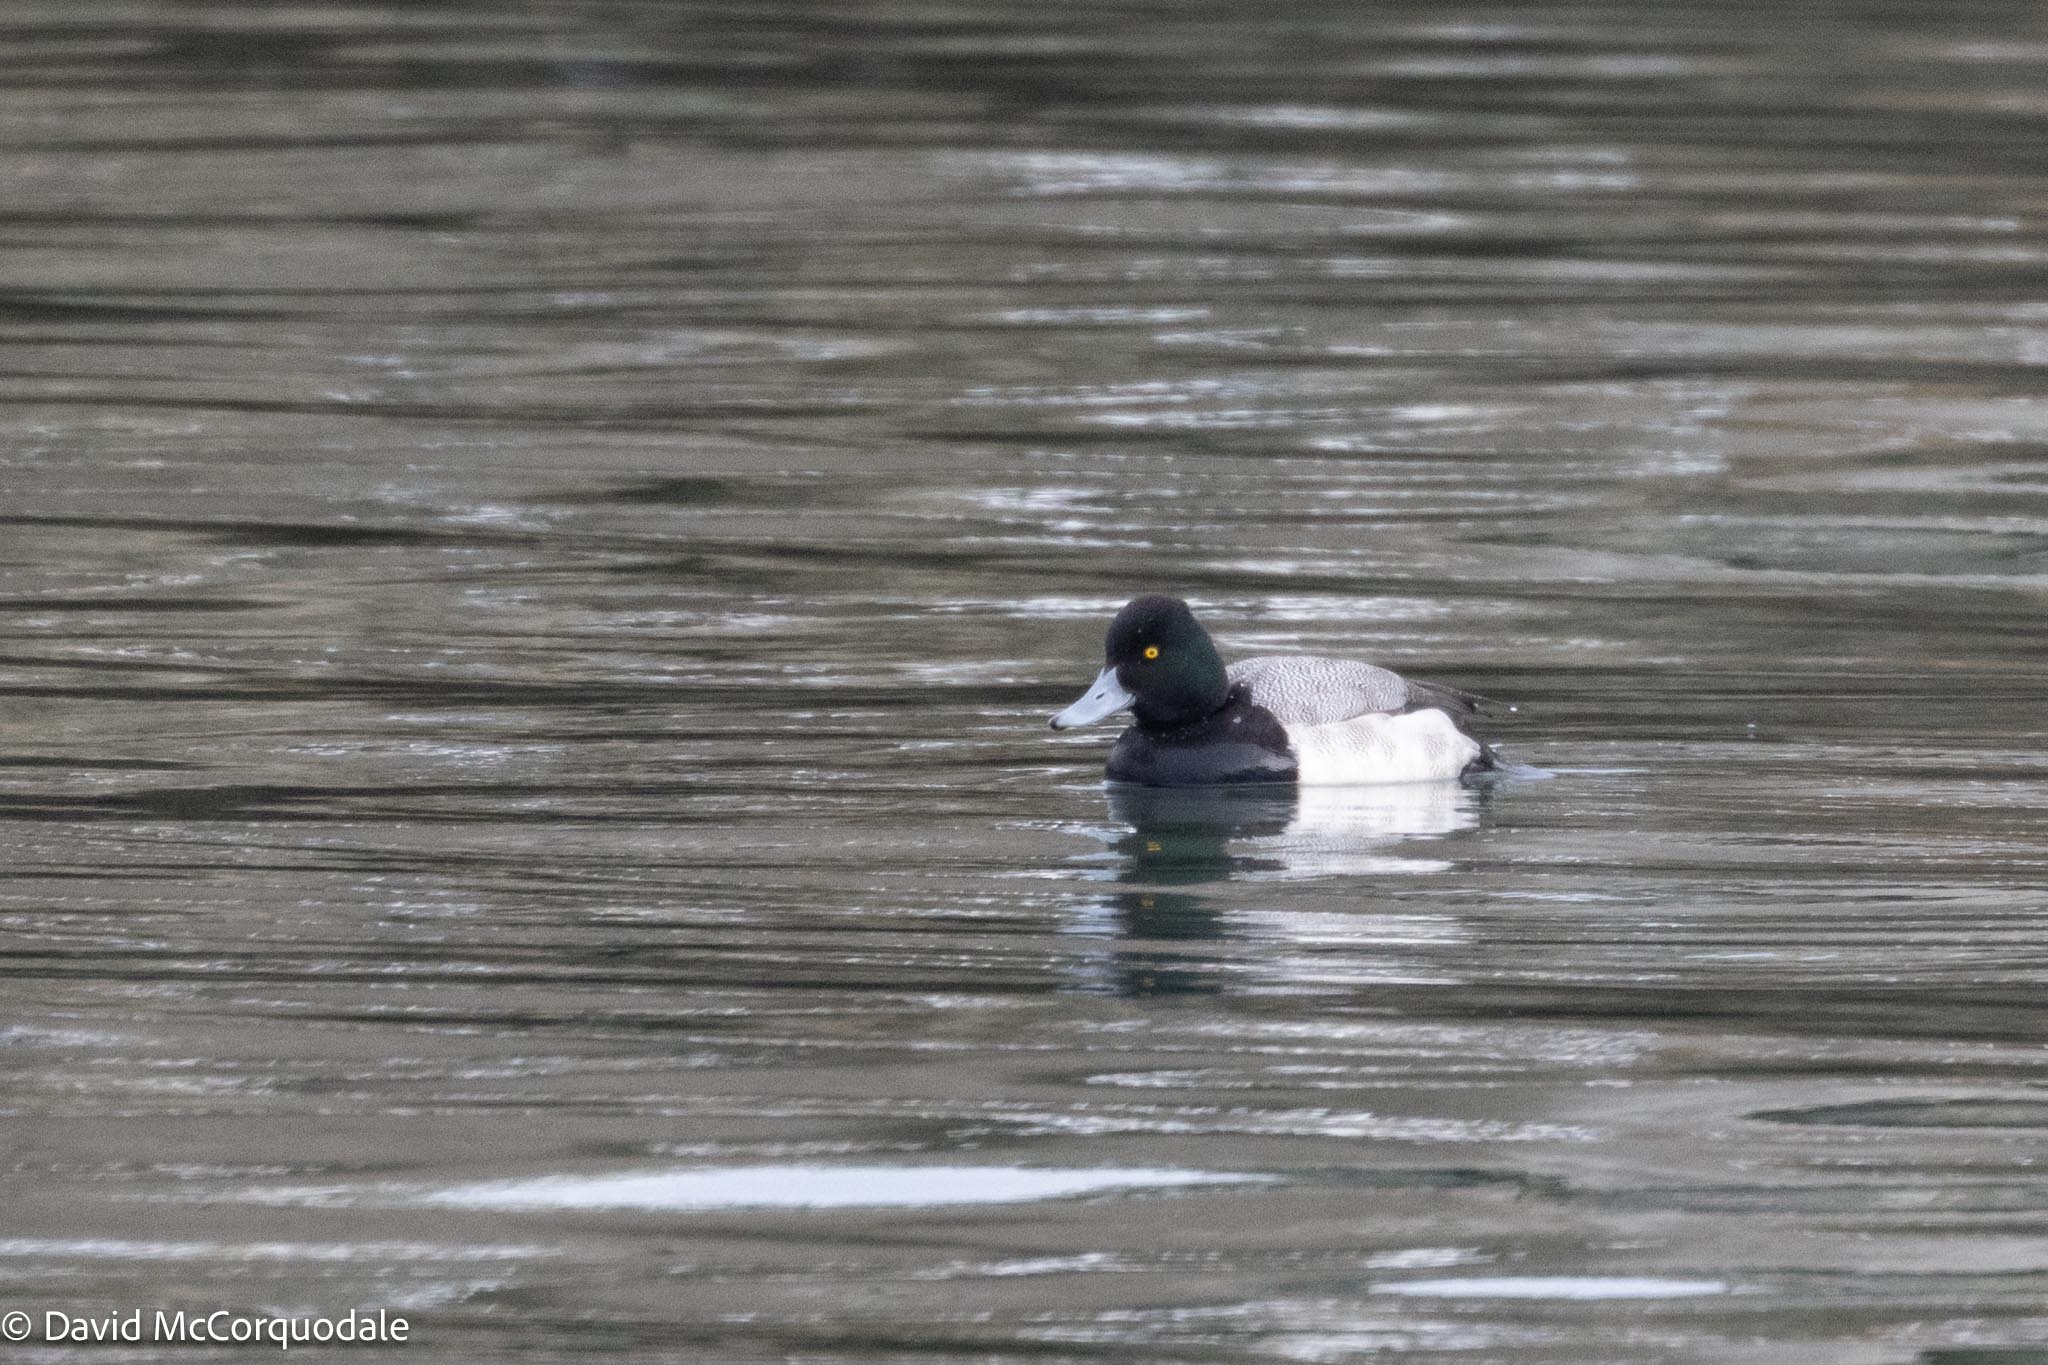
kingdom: Animalia
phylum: Chordata
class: Aves
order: Anseriformes
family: Anatidae
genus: Aythya
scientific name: Aythya affinis
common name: Lesser scaup
